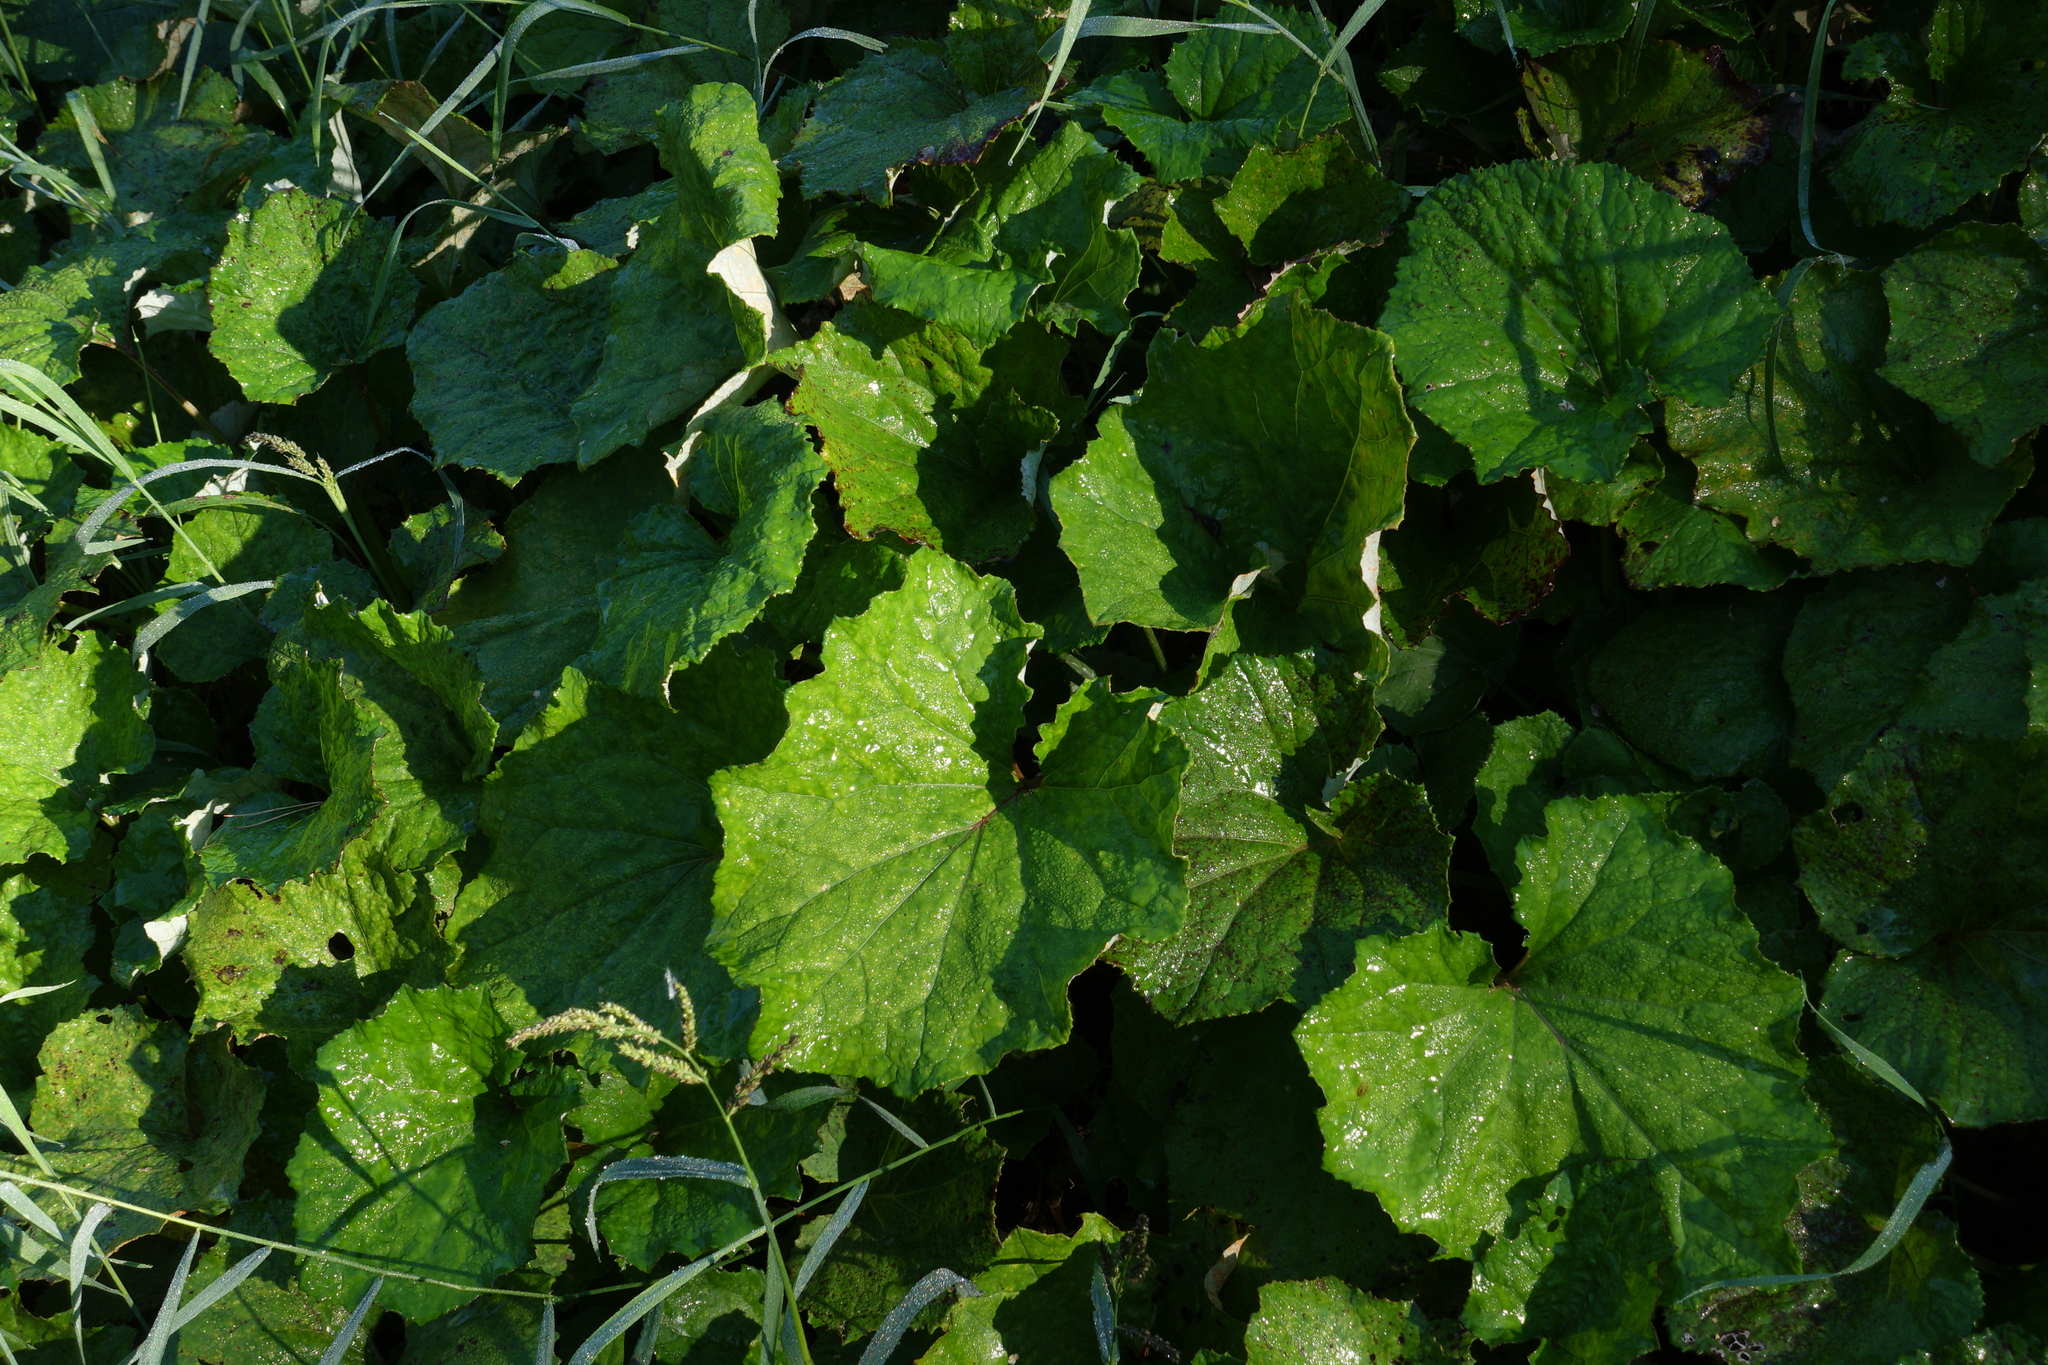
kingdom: Plantae
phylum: Tracheophyta
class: Magnoliopsida
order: Asterales
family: Asteraceae
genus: Tussilago
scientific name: Tussilago farfara
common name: Coltsfoot
